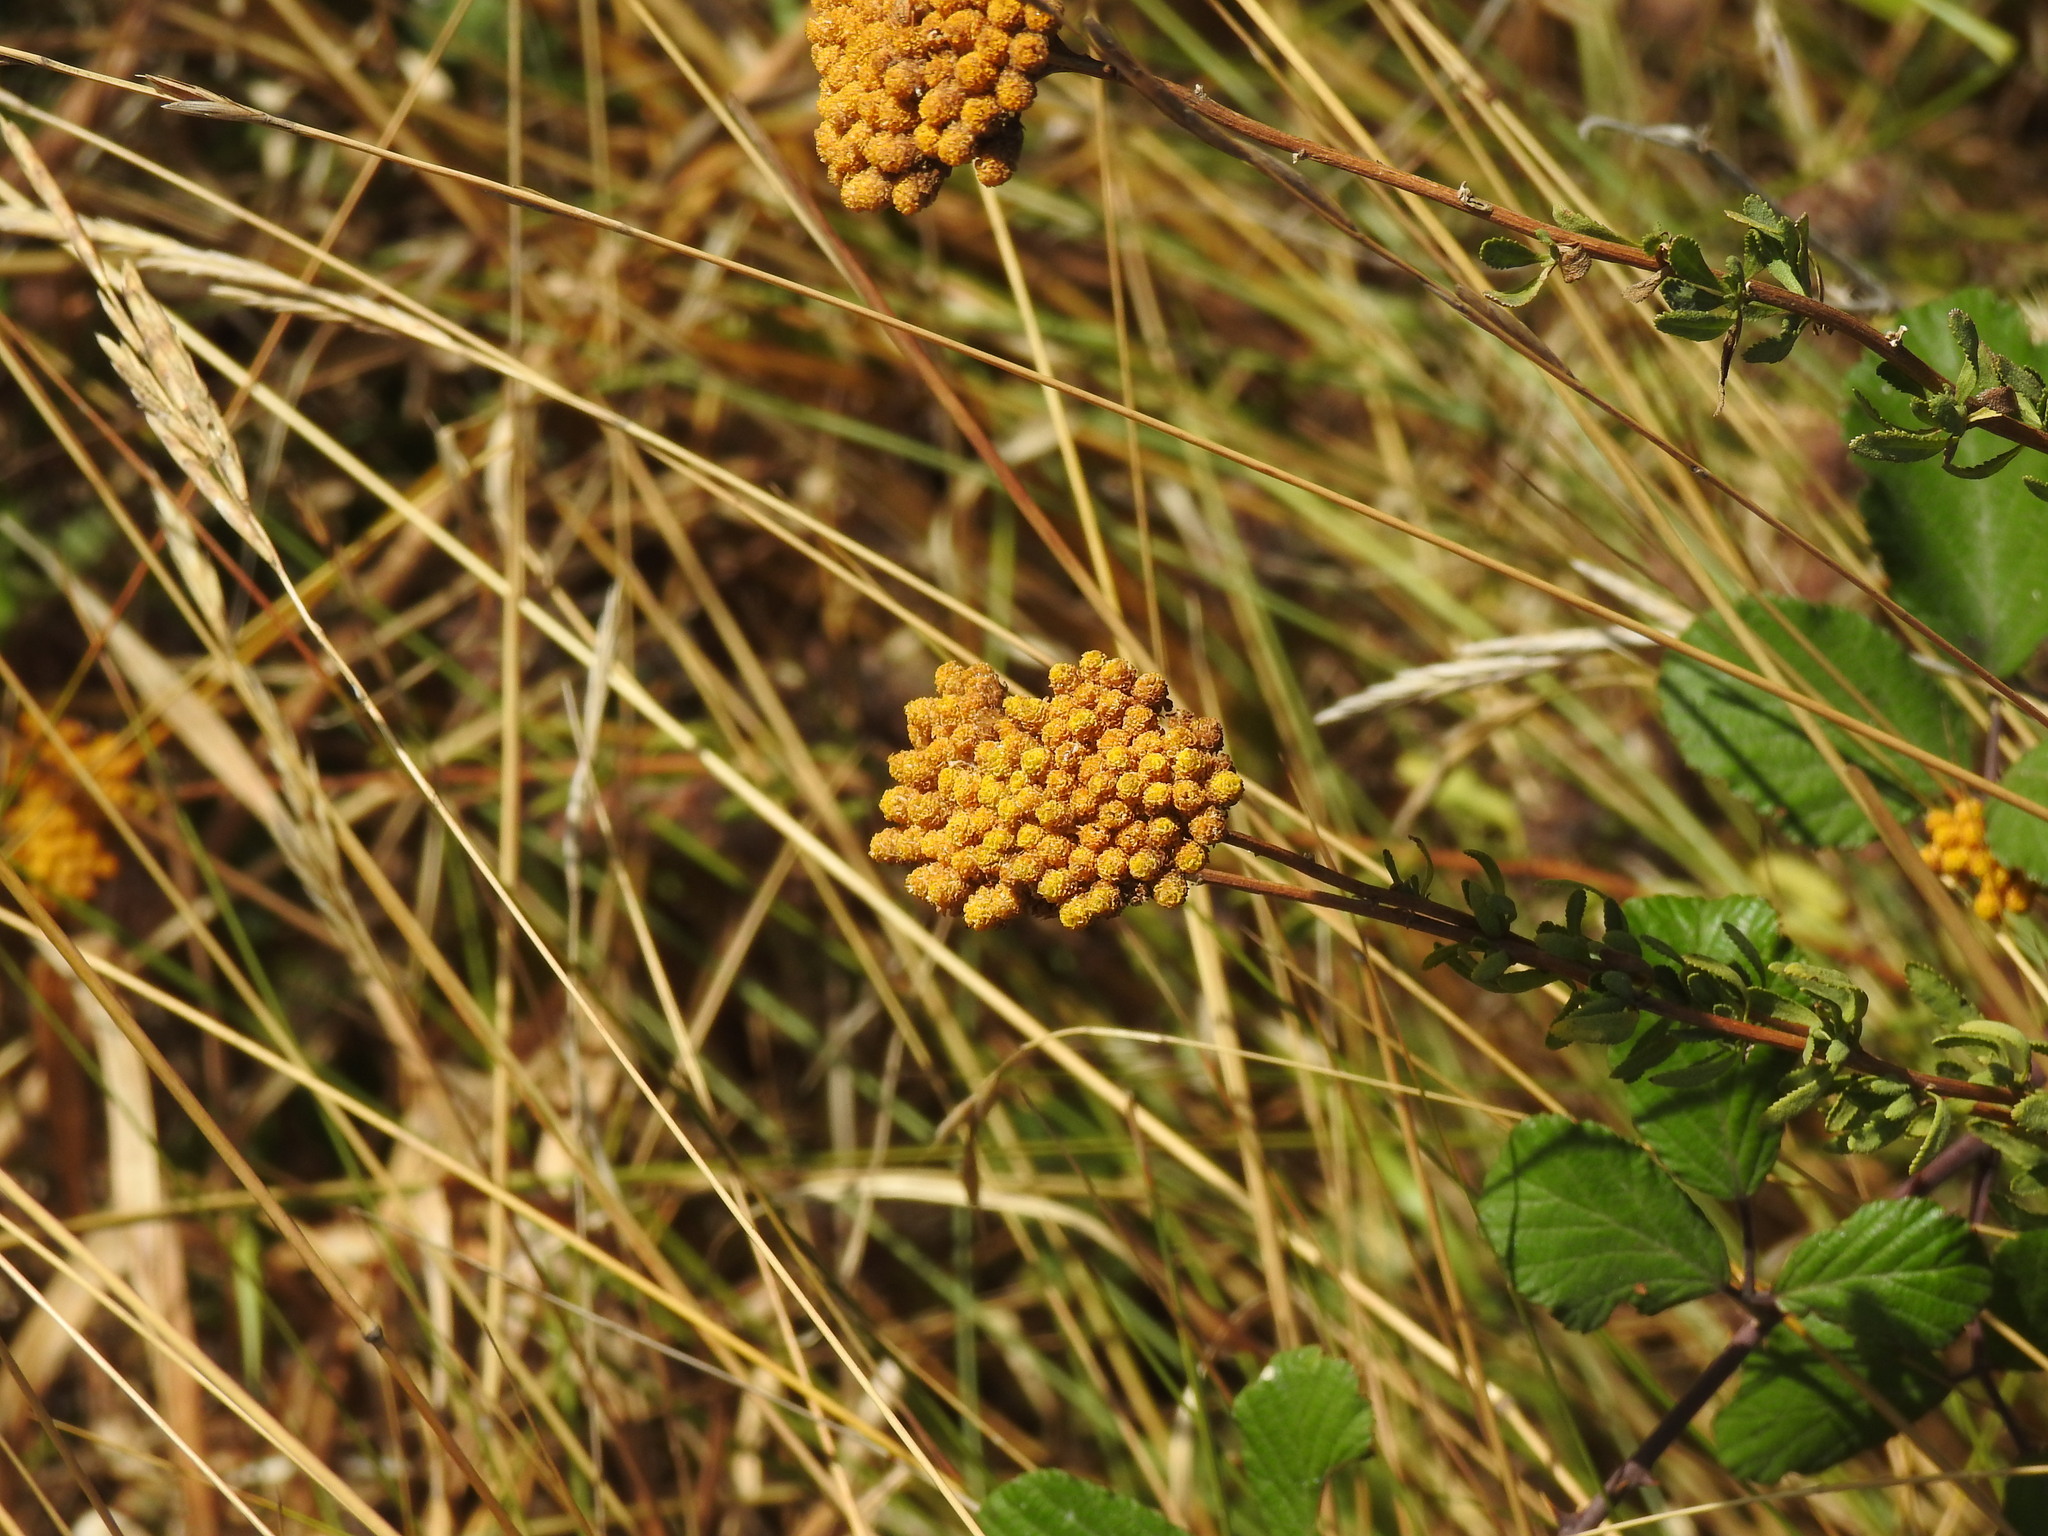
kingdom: Plantae
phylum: Tracheophyta
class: Magnoliopsida
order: Asterales
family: Asteraceae
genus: Achillea
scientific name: Achillea ageratum
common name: Sweet-nancy
